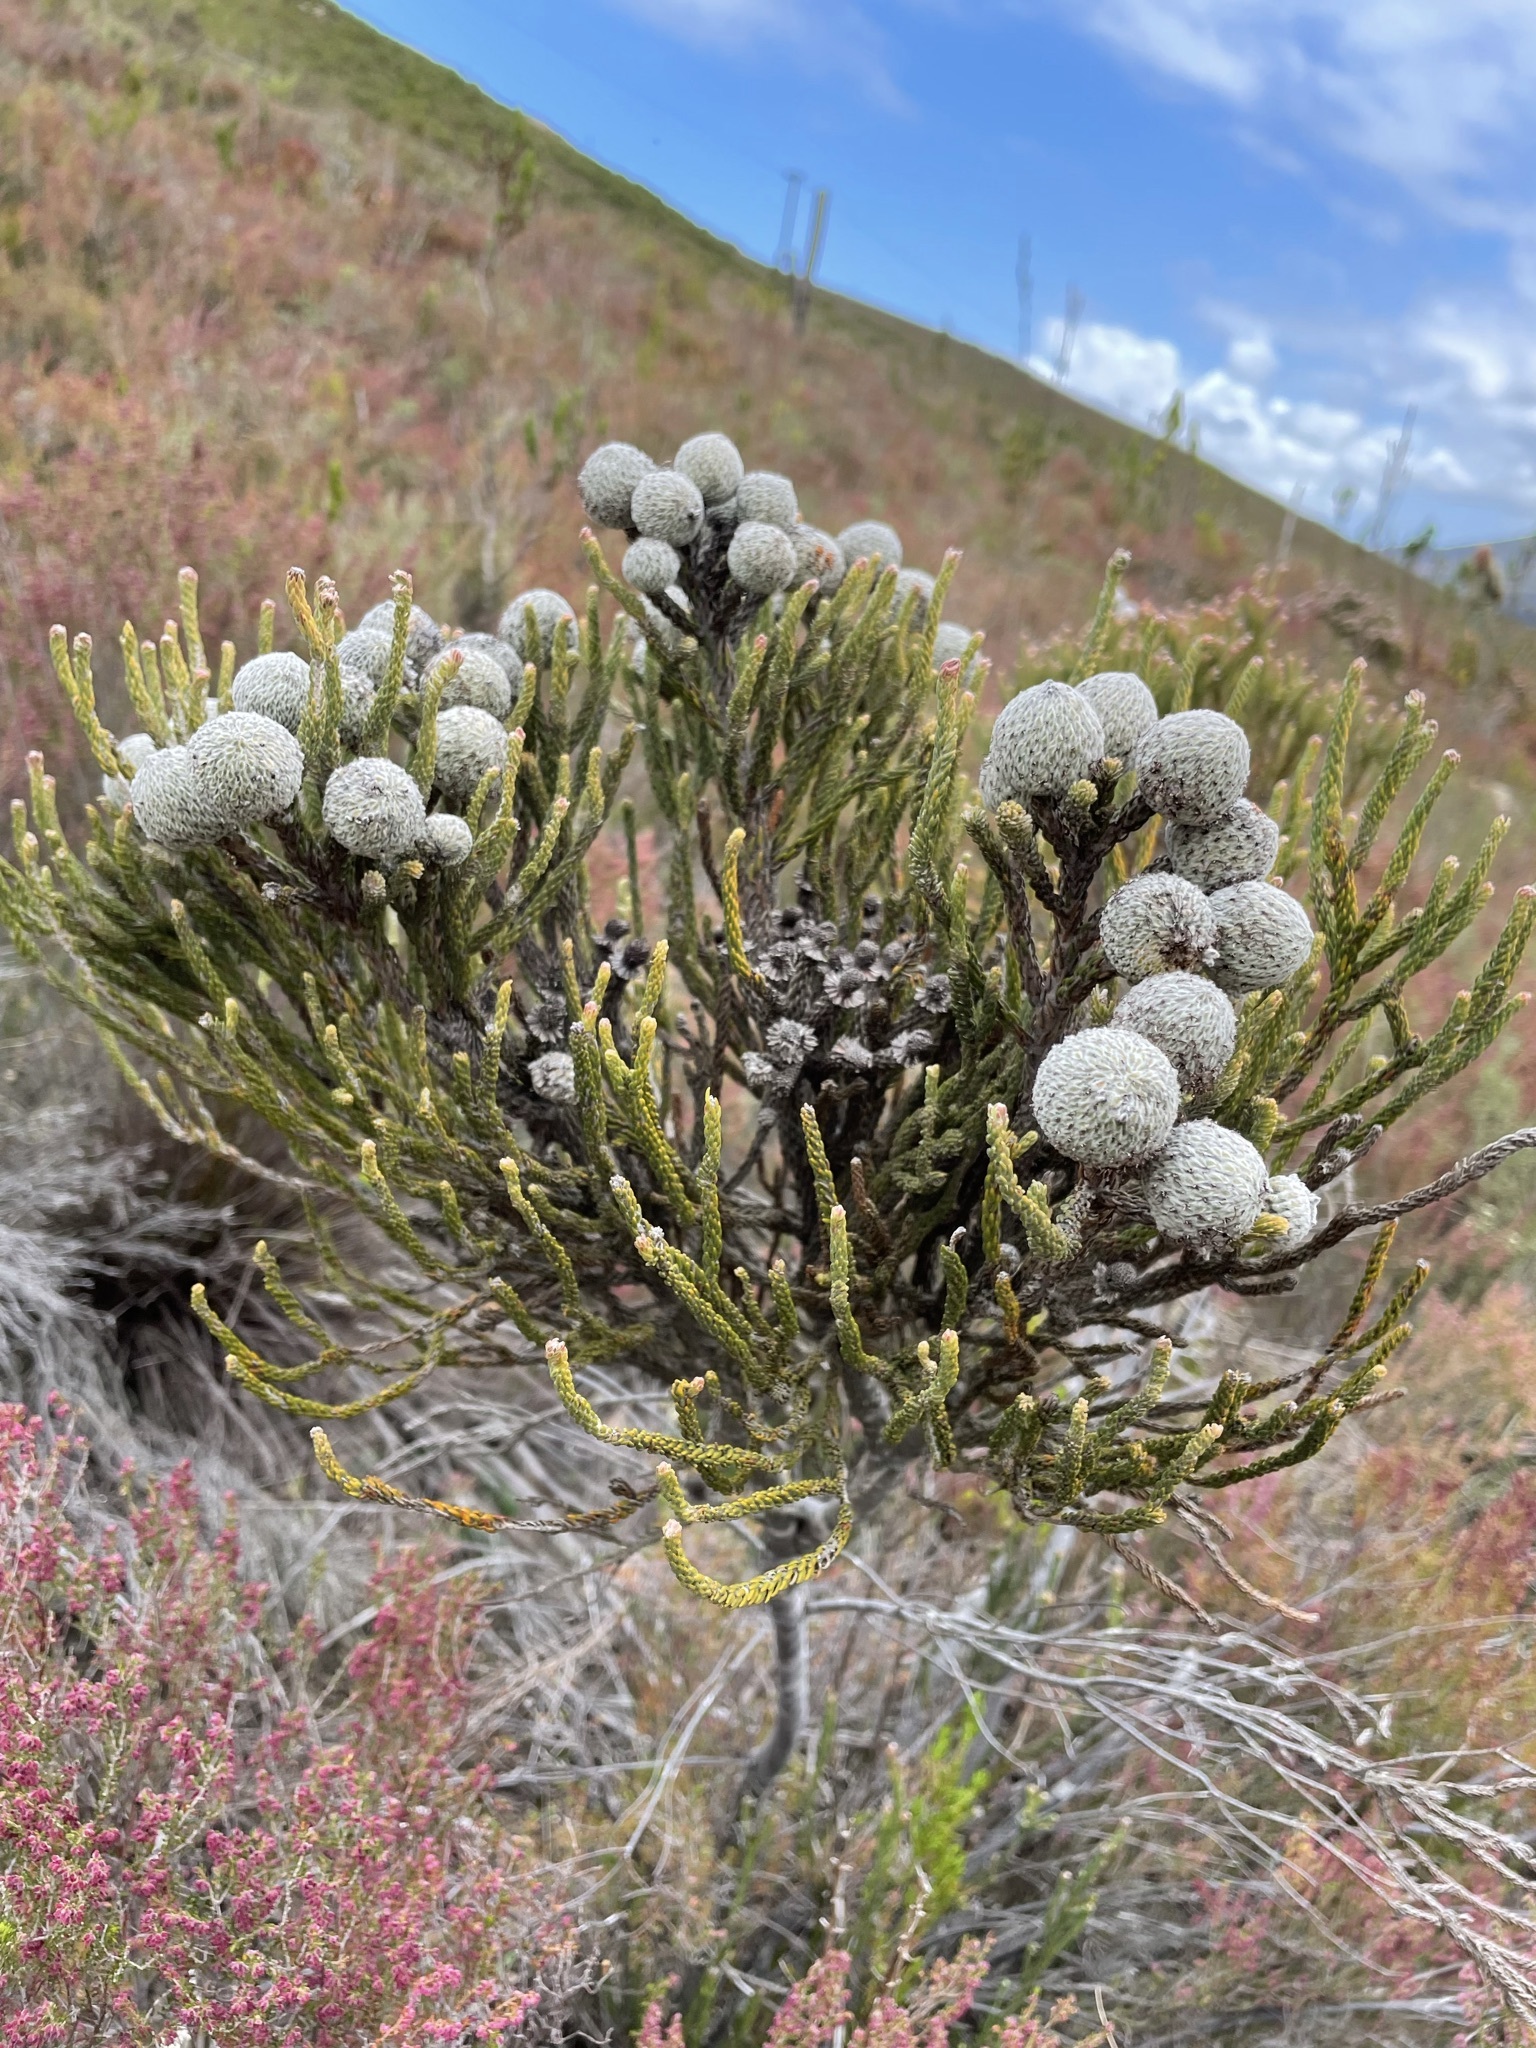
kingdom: Plantae
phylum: Tracheophyta
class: Magnoliopsida
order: Bruniales
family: Bruniaceae
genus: Brunia
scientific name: Brunia laevis
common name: Silver brunia
